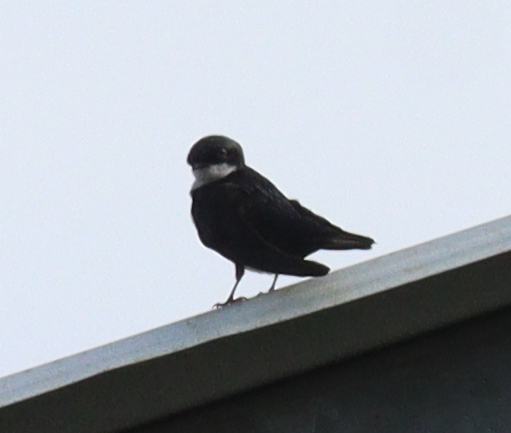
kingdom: Animalia
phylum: Chordata
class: Aves
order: Passeriformes
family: Hirundinidae
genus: Notiochelidon
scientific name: Notiochelidon cyanoleuca
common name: Blue-and-white swallow
